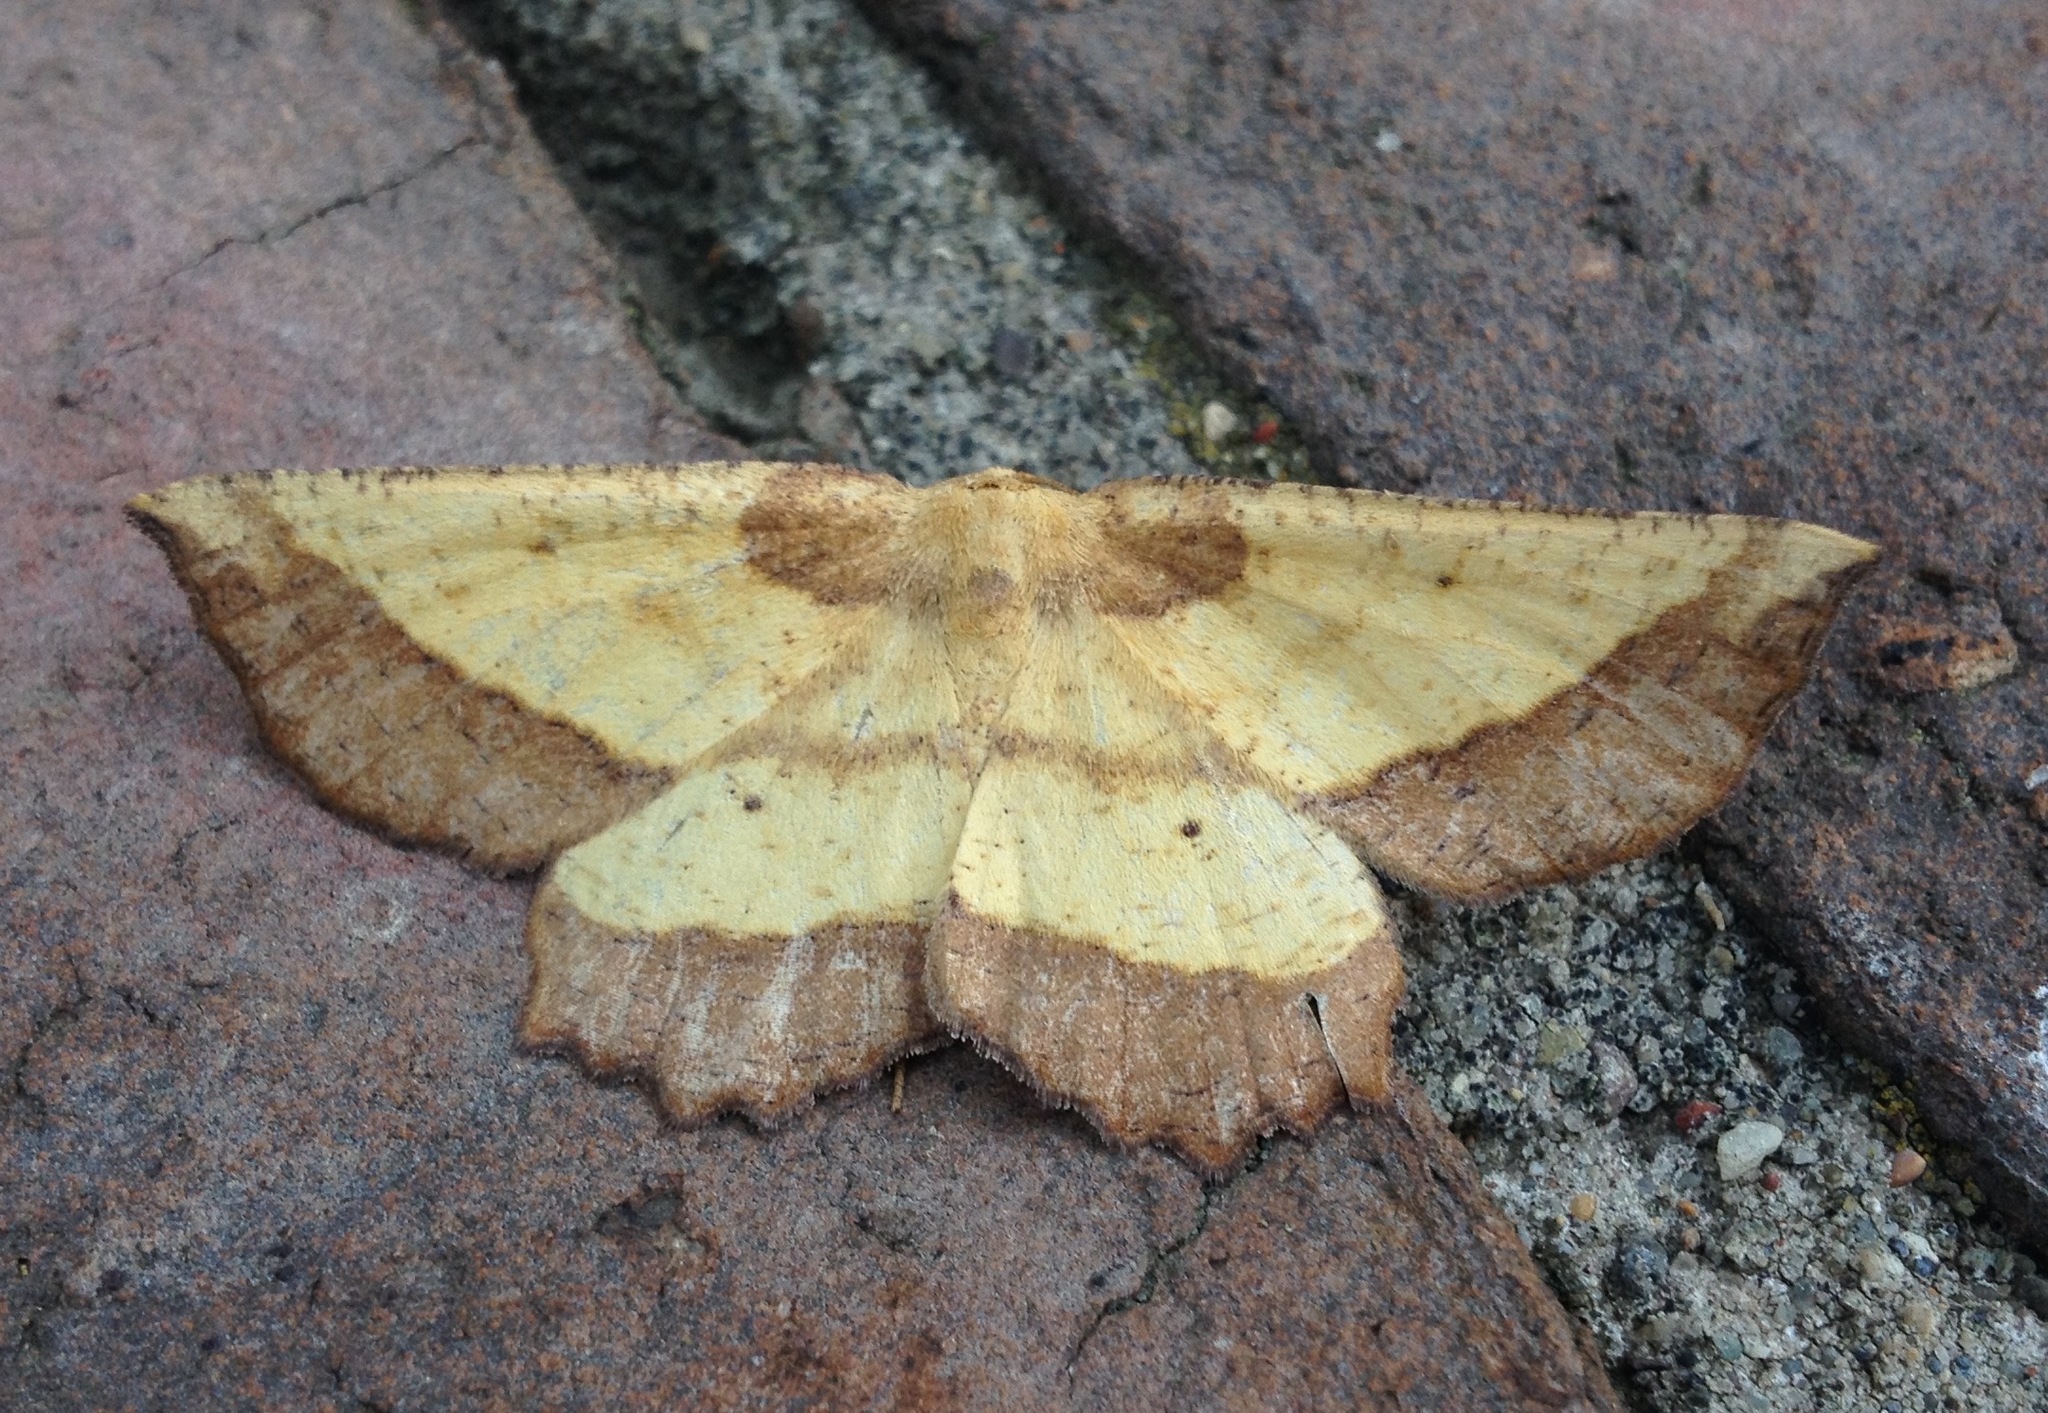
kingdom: Animalia
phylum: Arthropoda
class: Insecta
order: Lepidoptera
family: Geometridae
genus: Euchlaena
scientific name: Euchlaena serrata
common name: Saw wing
